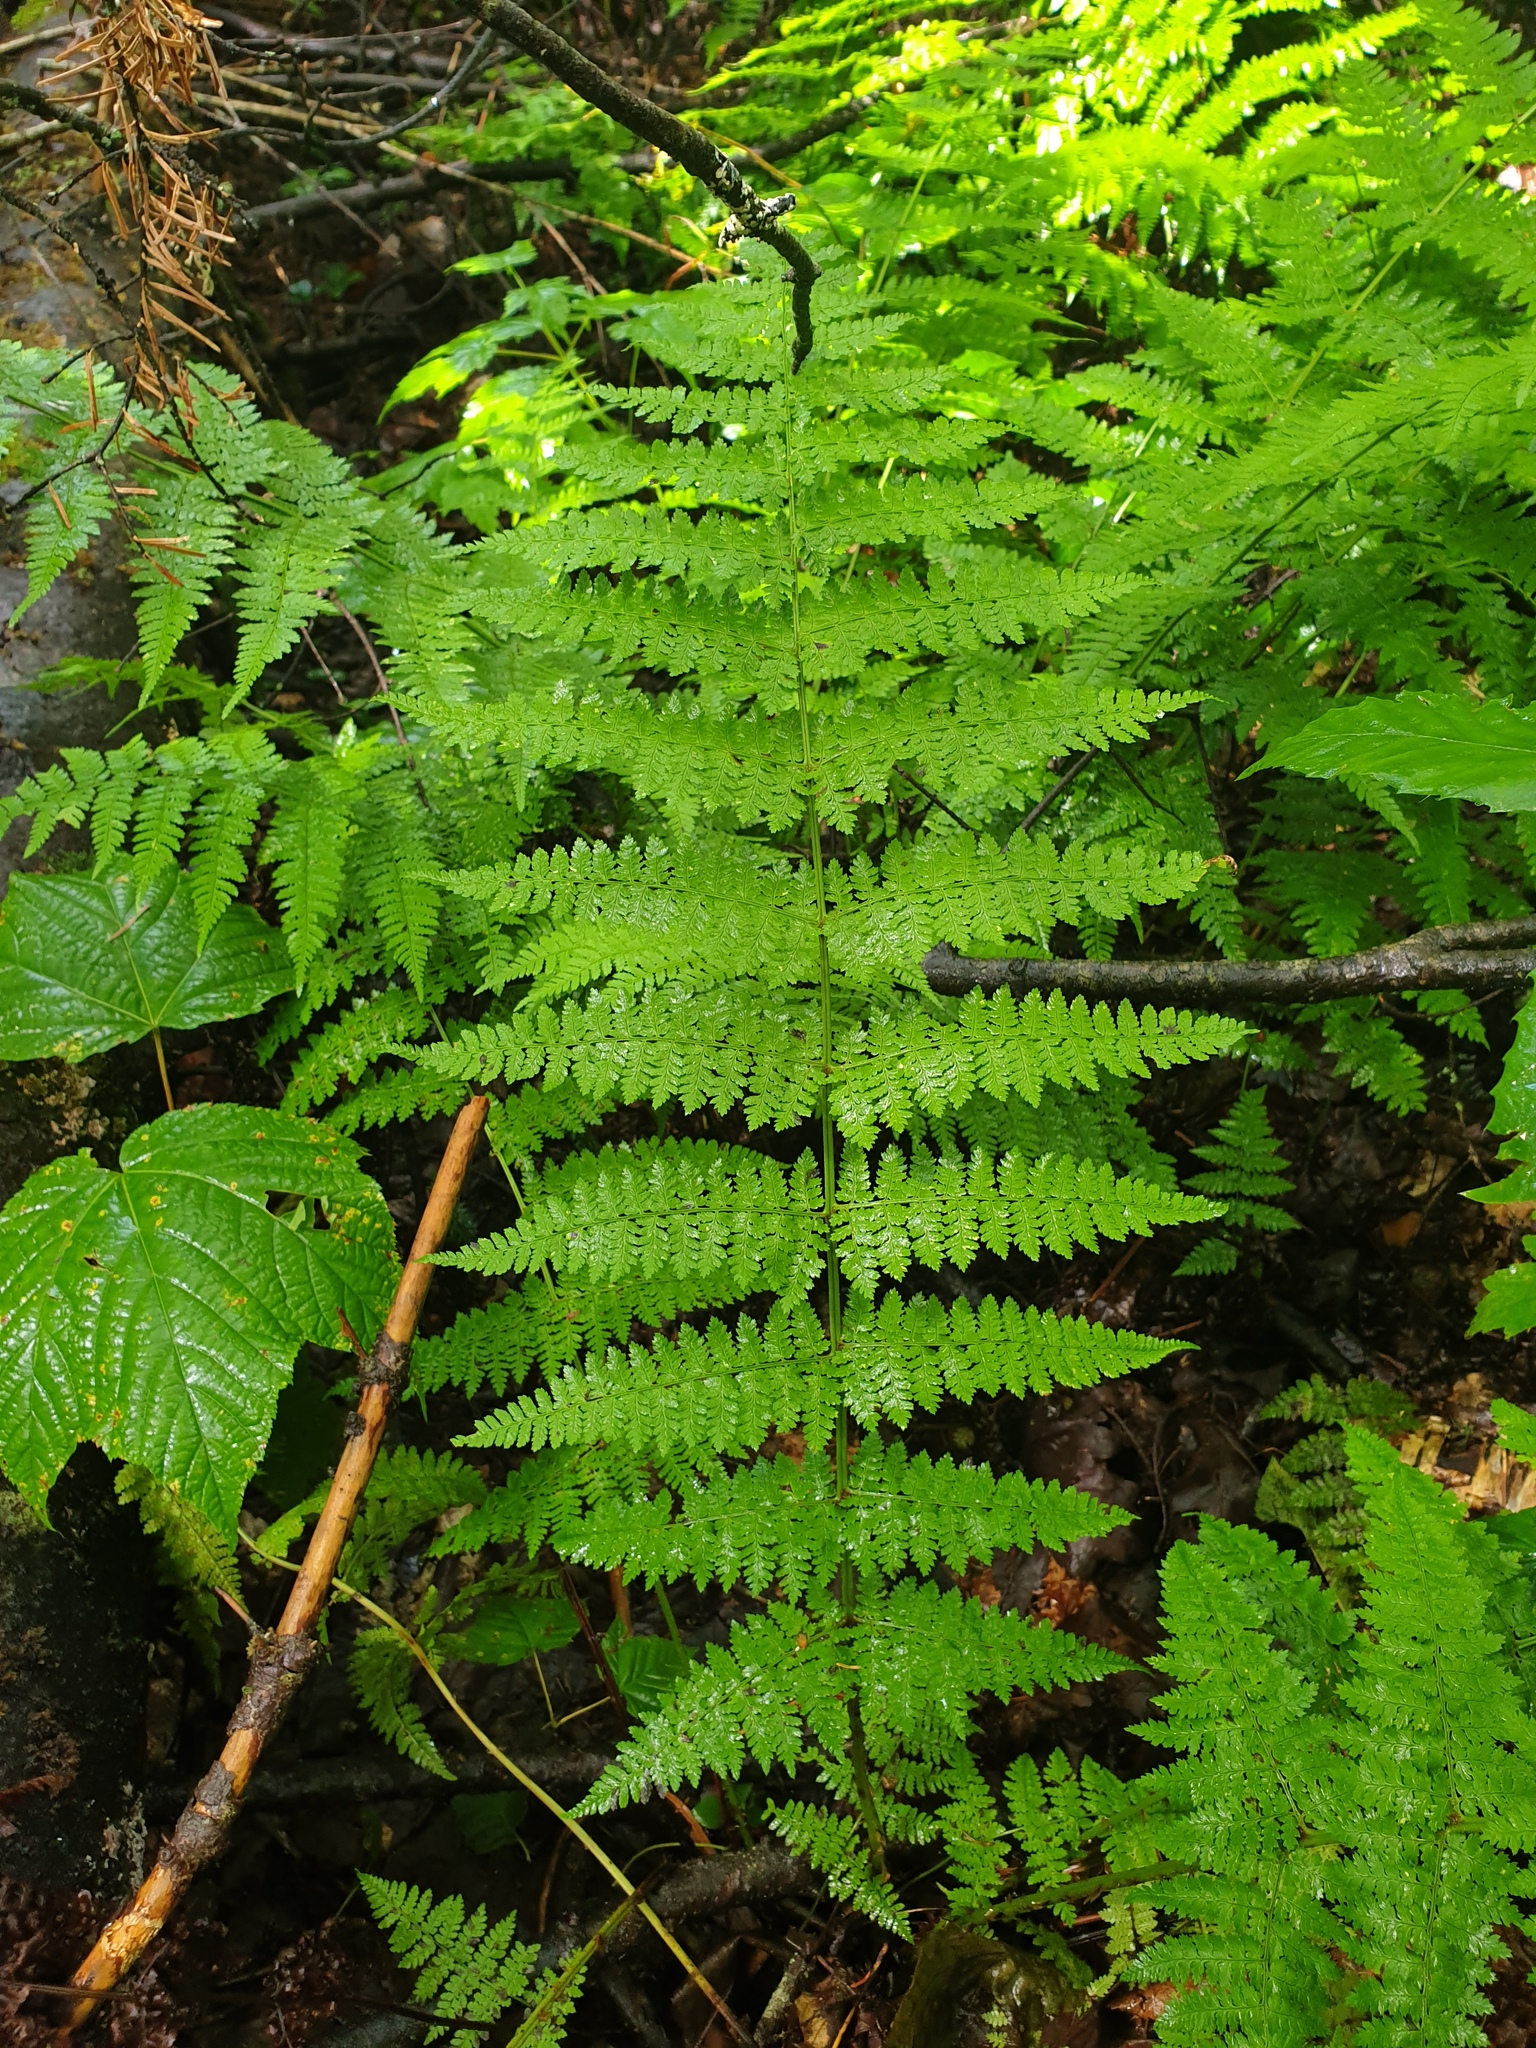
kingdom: Plantae
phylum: Tracheophyta
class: Polypodiopsida
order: Polypodiales
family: Dryopteridaceae
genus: Dryopteris
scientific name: Dryopteris intermedia
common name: Evergreen wood fern
